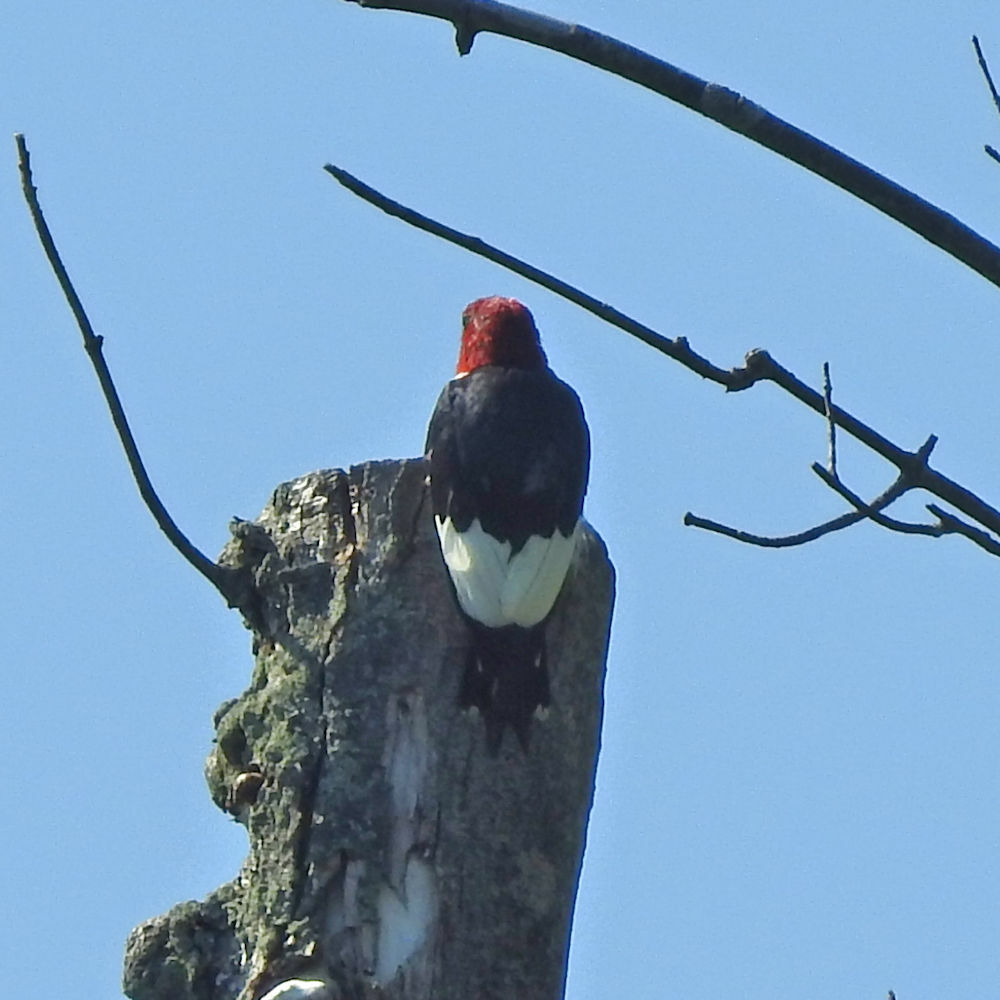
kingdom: Animalia
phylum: Chordata
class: Aves
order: Piciformes
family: Picidae
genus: Melanerpes
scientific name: Melanerpes erythrocephalus
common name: Red-headed woodpecker
